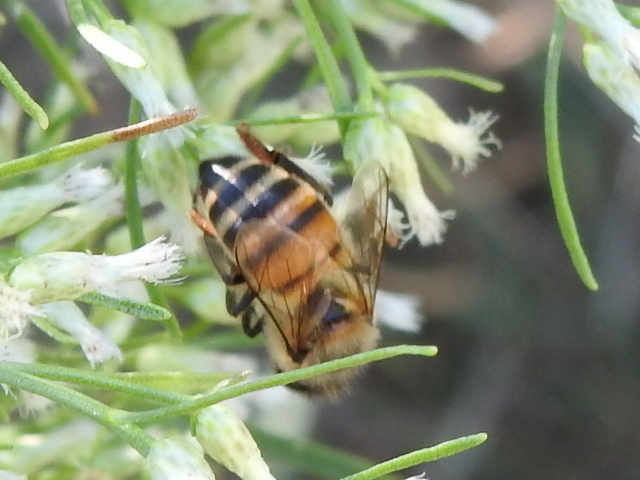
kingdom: Animalia
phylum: Arthropoda
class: Insecta
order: Hymenoptera
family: Apidae
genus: Apis
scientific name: Apis mellifera
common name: Honey bee
